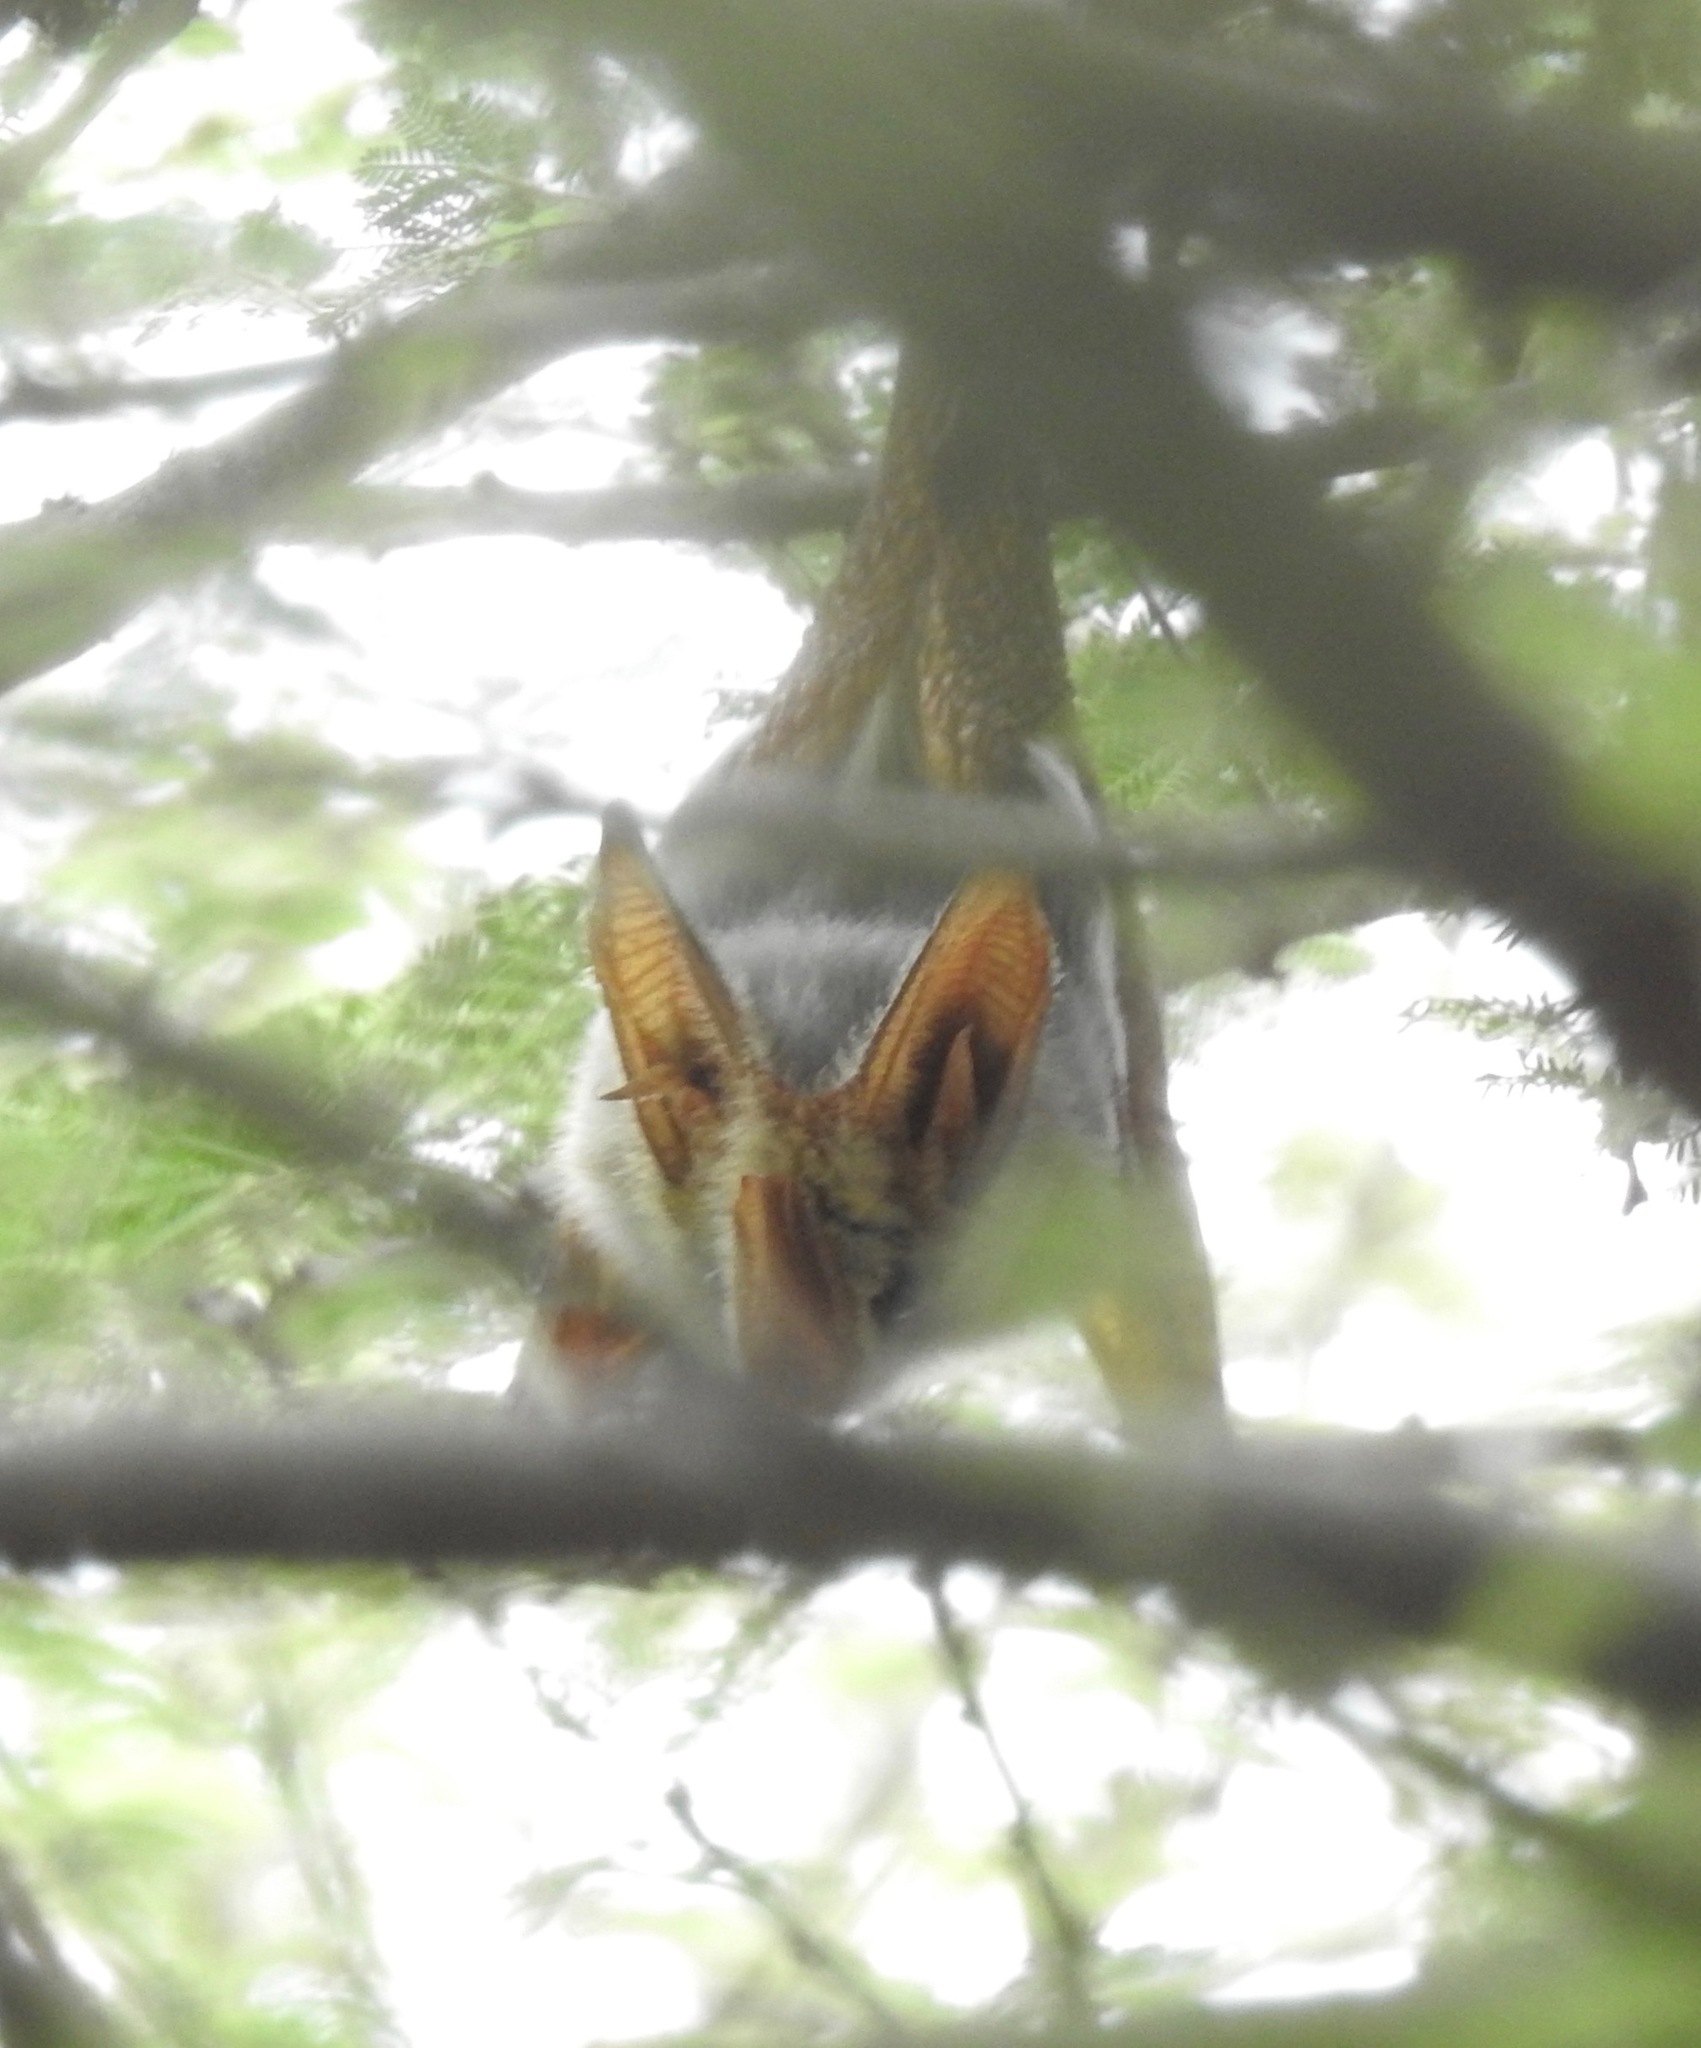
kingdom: Animalia
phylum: Chordata
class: Mammalia
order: Chiroptera
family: Megadermatidae
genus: Lavia
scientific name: Lavia frons
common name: Yellow-winged bat
